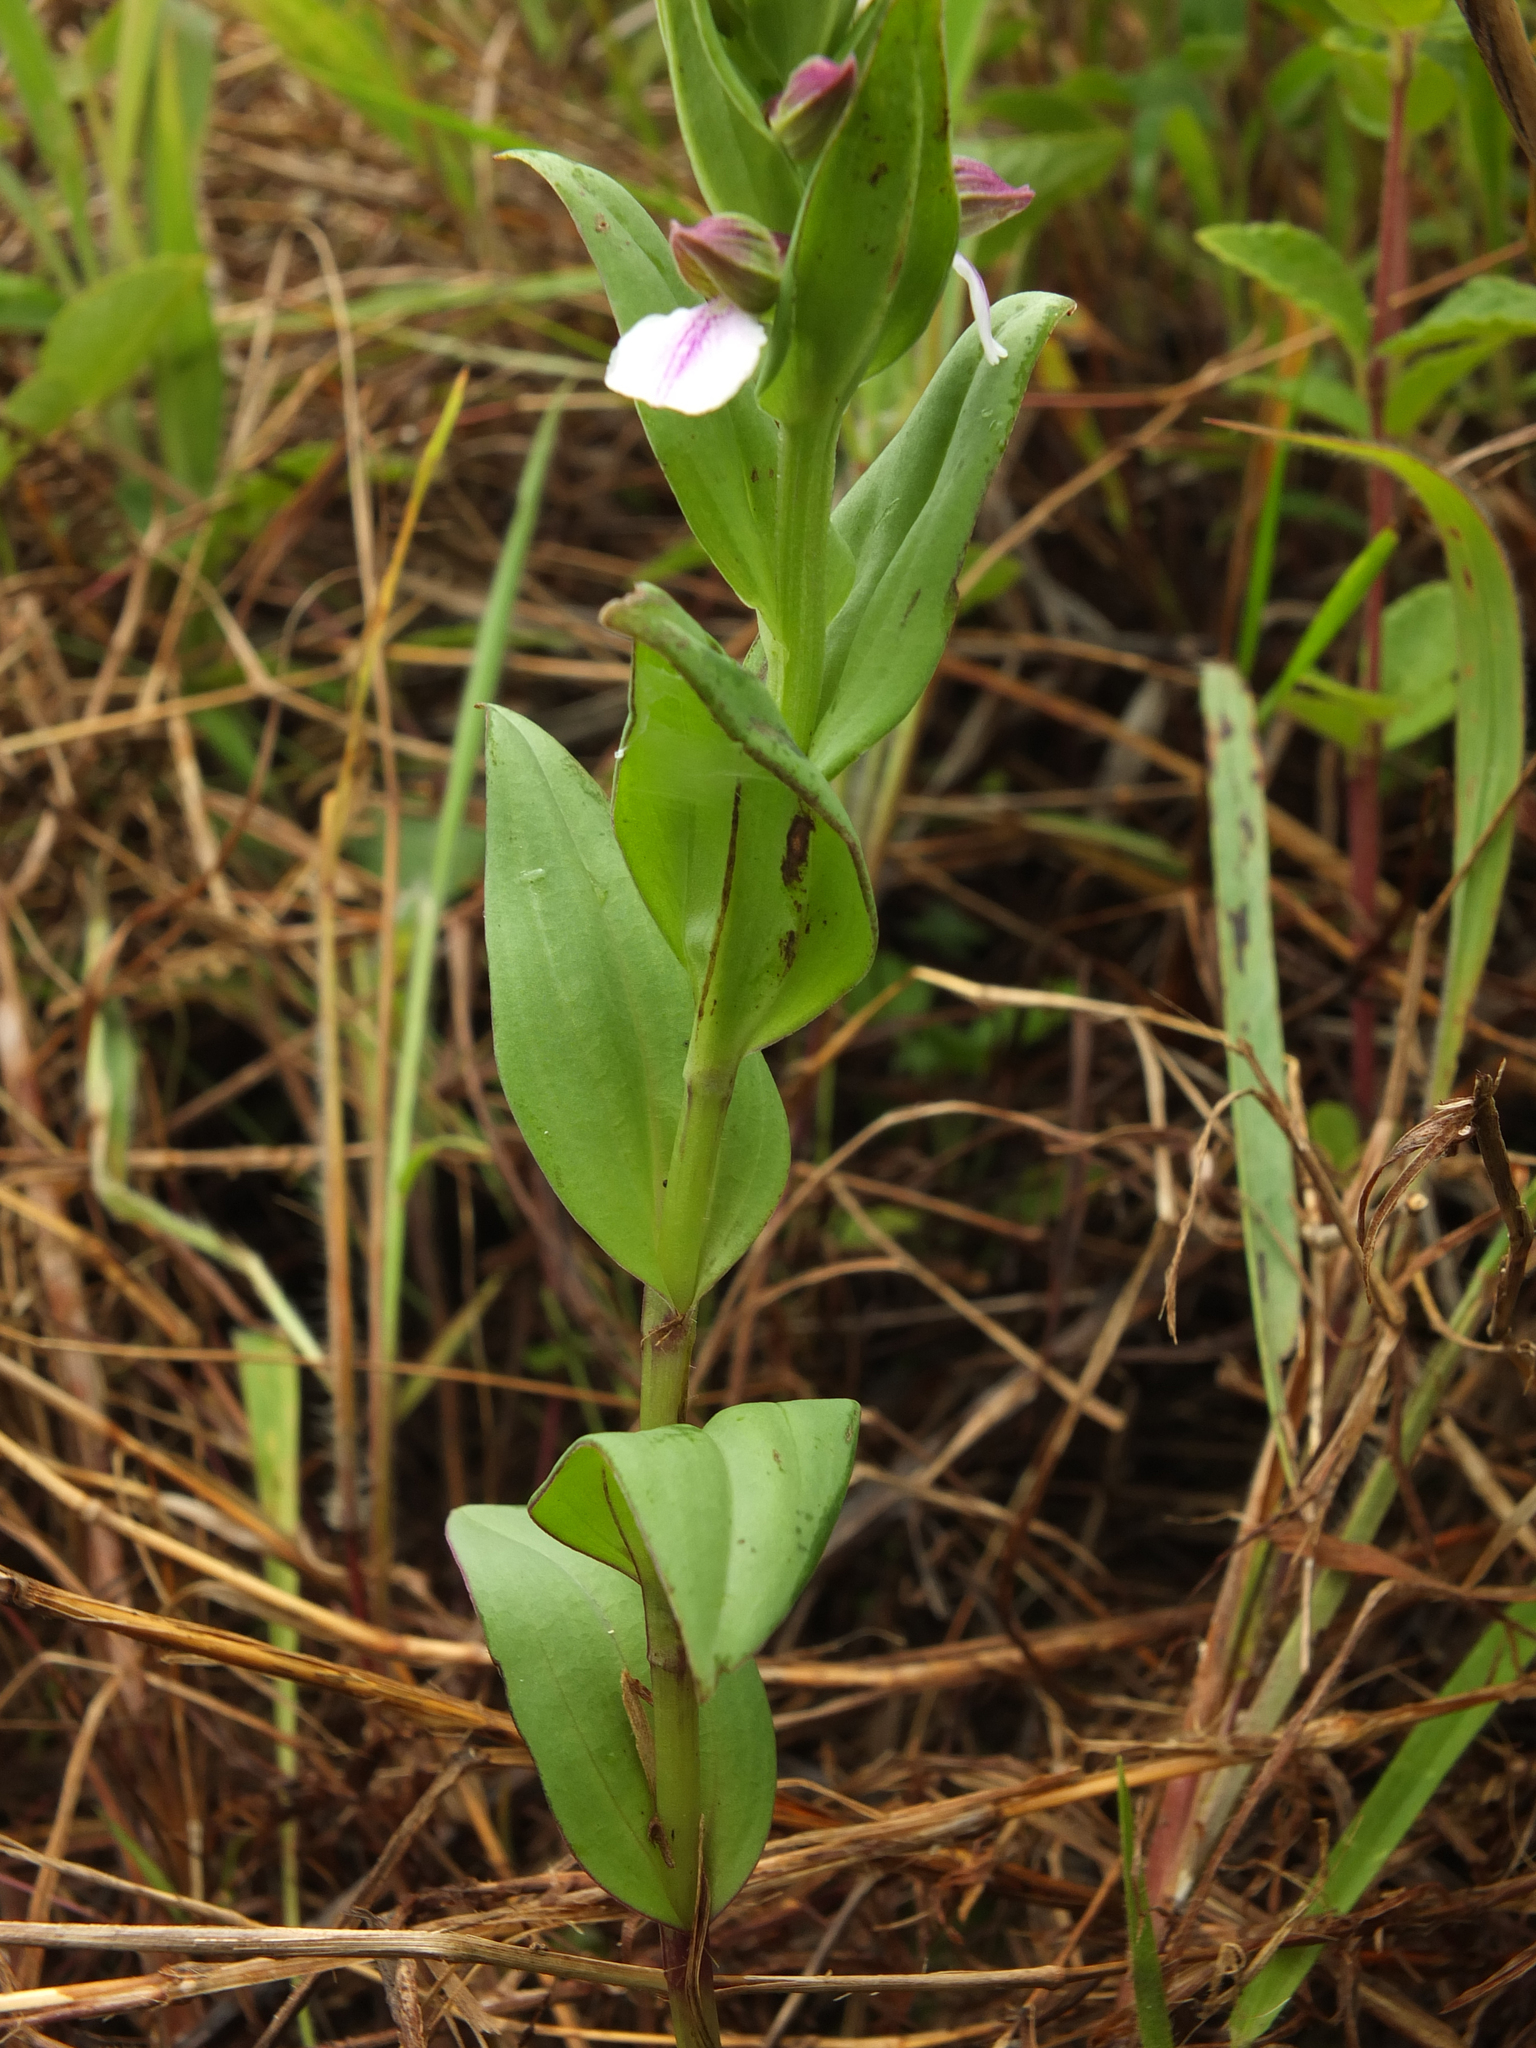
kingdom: Plantae
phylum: Tracheophyta
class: Liliopsida
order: Asparagales
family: Orchidaceae
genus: Brachycorythis
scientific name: Brachycorythis wightii
